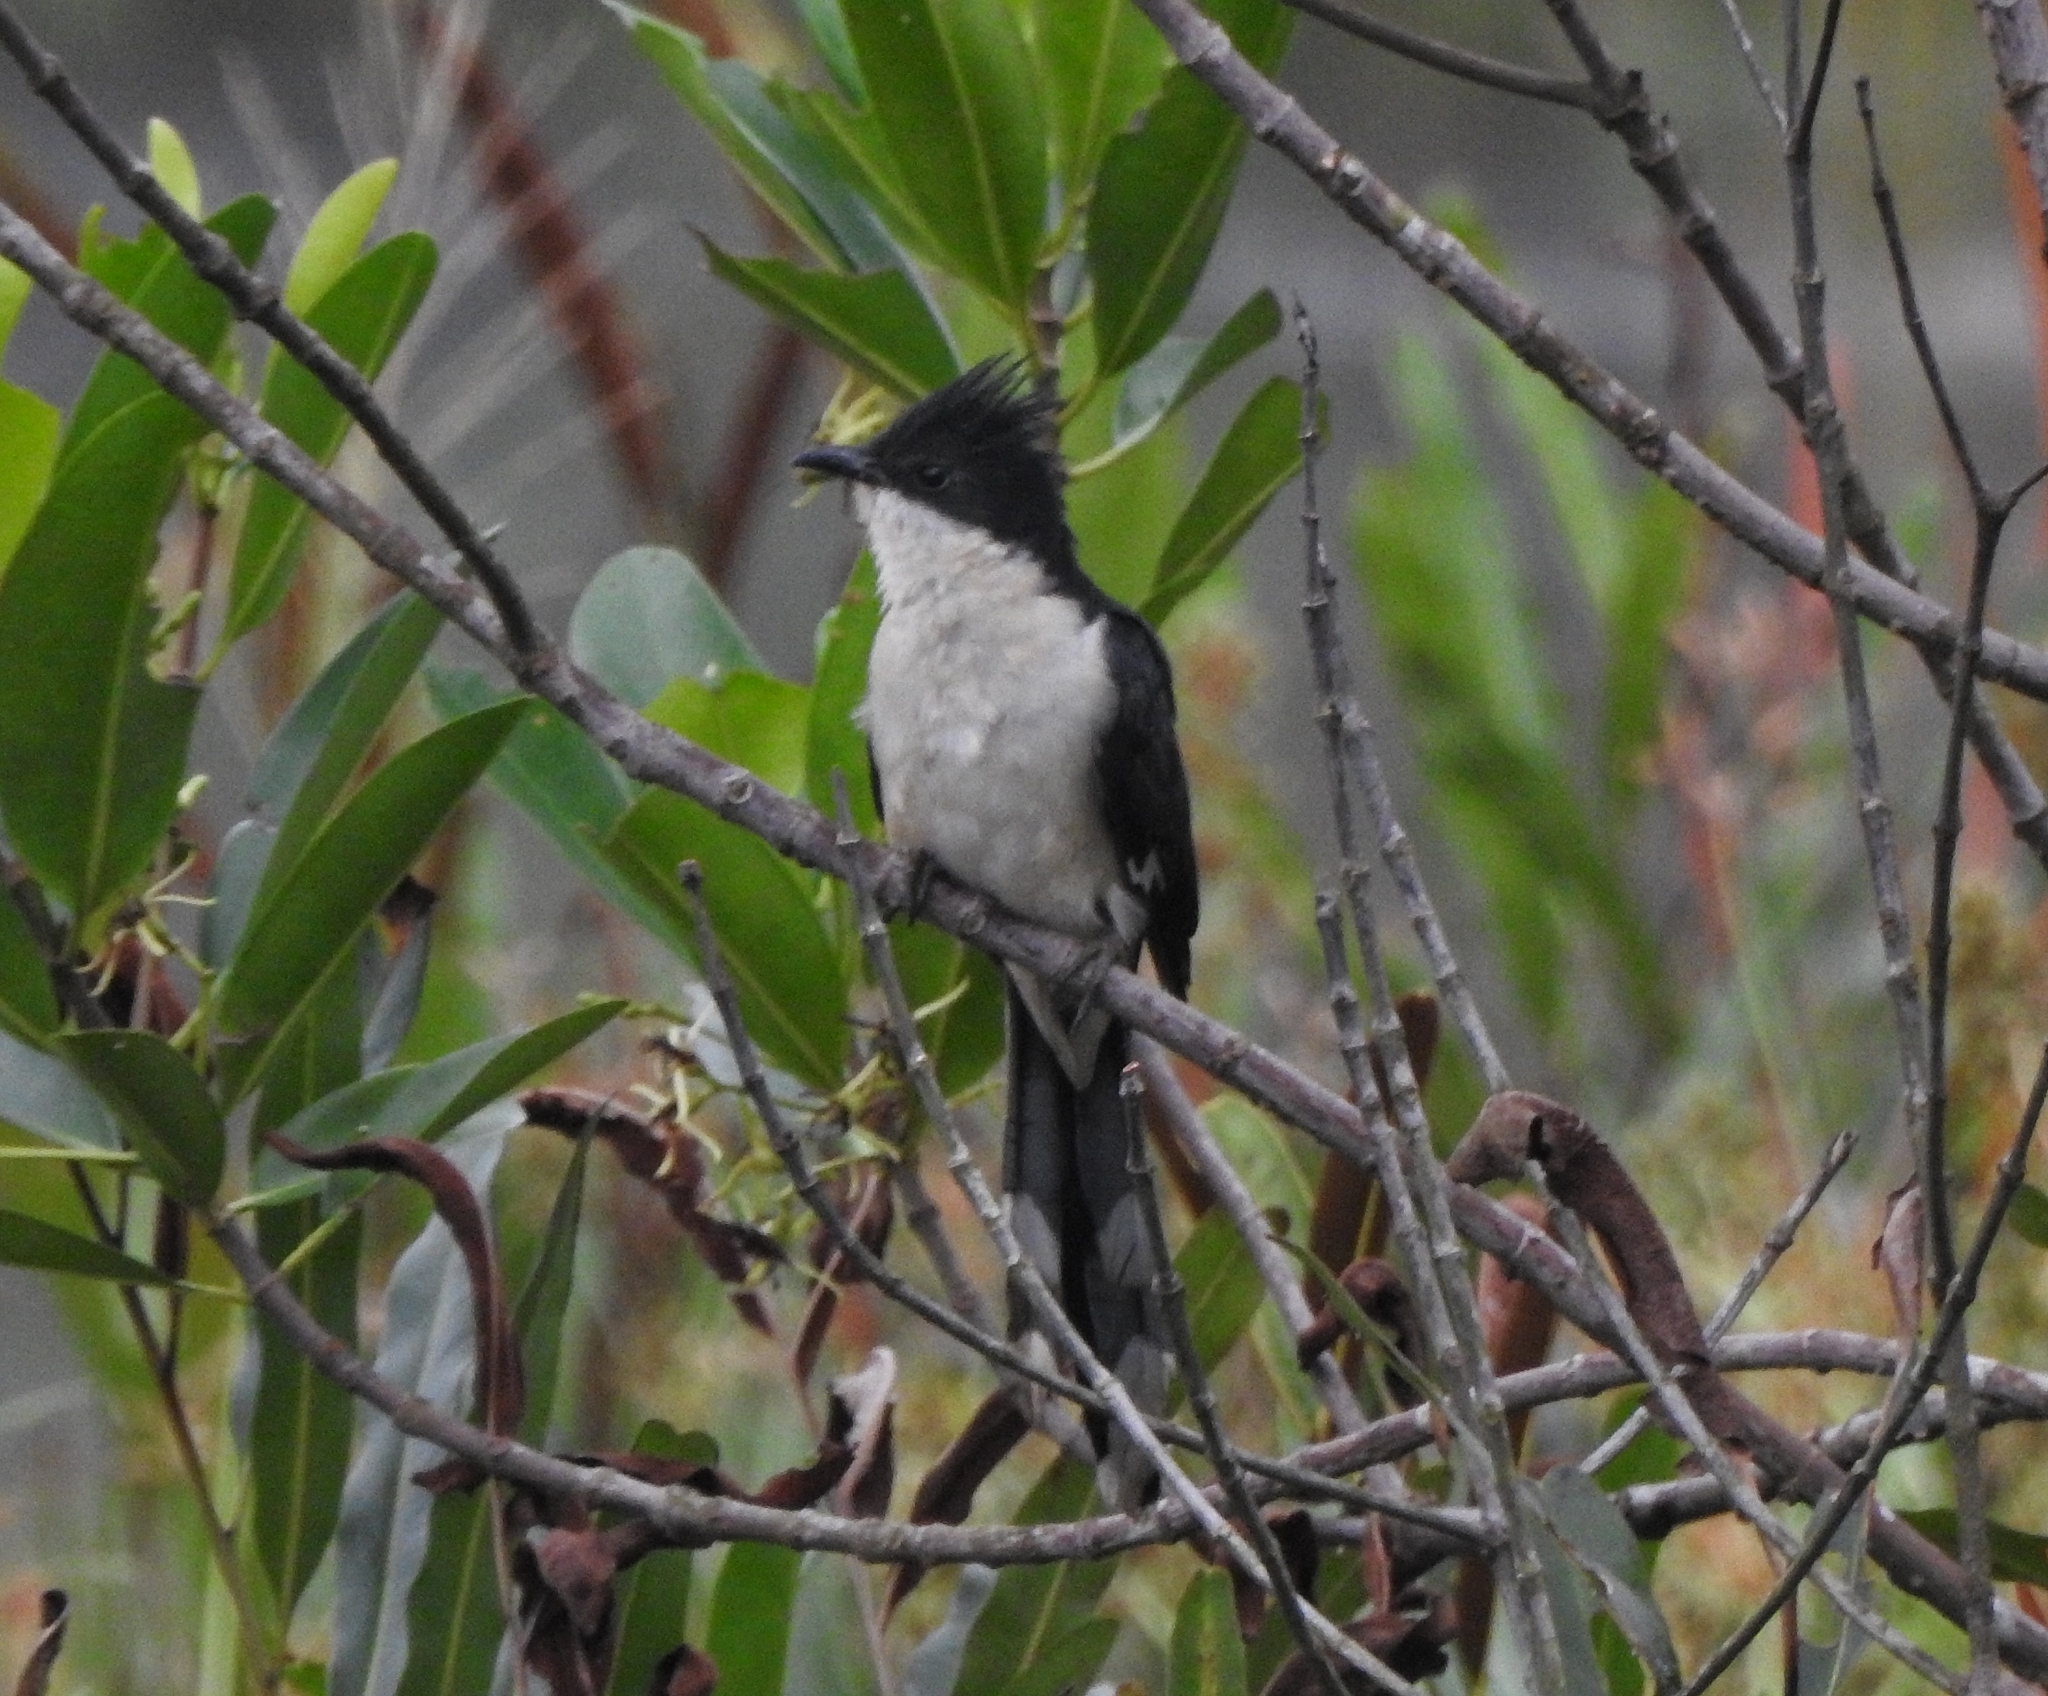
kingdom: Animalia
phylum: Chordata
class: Aves
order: Cuculiformes
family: Cuculidae
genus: Clamator
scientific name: Clamator jacobinus
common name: Jacobin cuckoo
